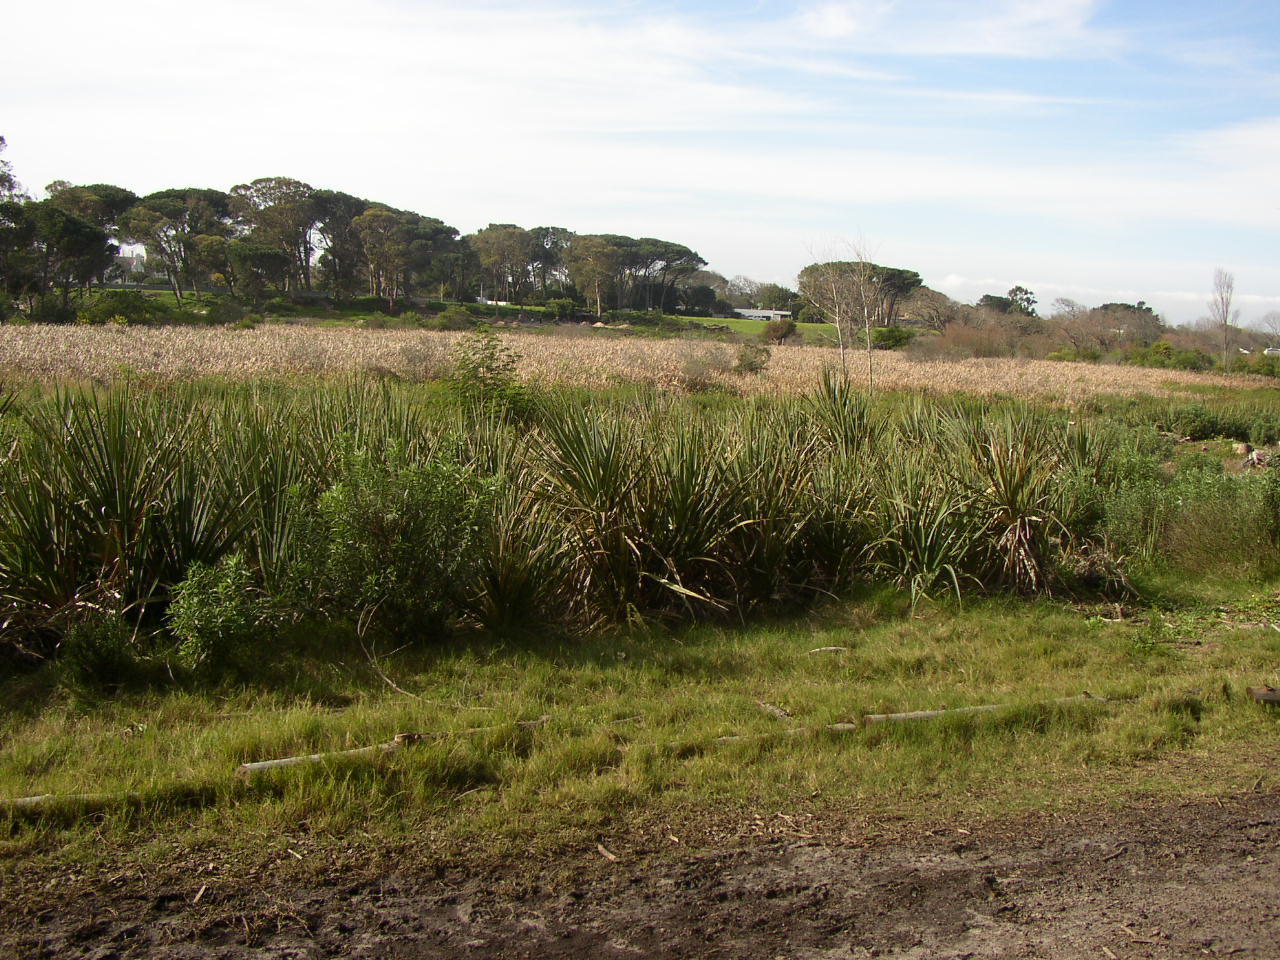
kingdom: Plantae
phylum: Tracheophyta
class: Liliopsida
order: Poales
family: Thurniaceae
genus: Prionium
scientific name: Prionium serratum
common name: Palmiet
